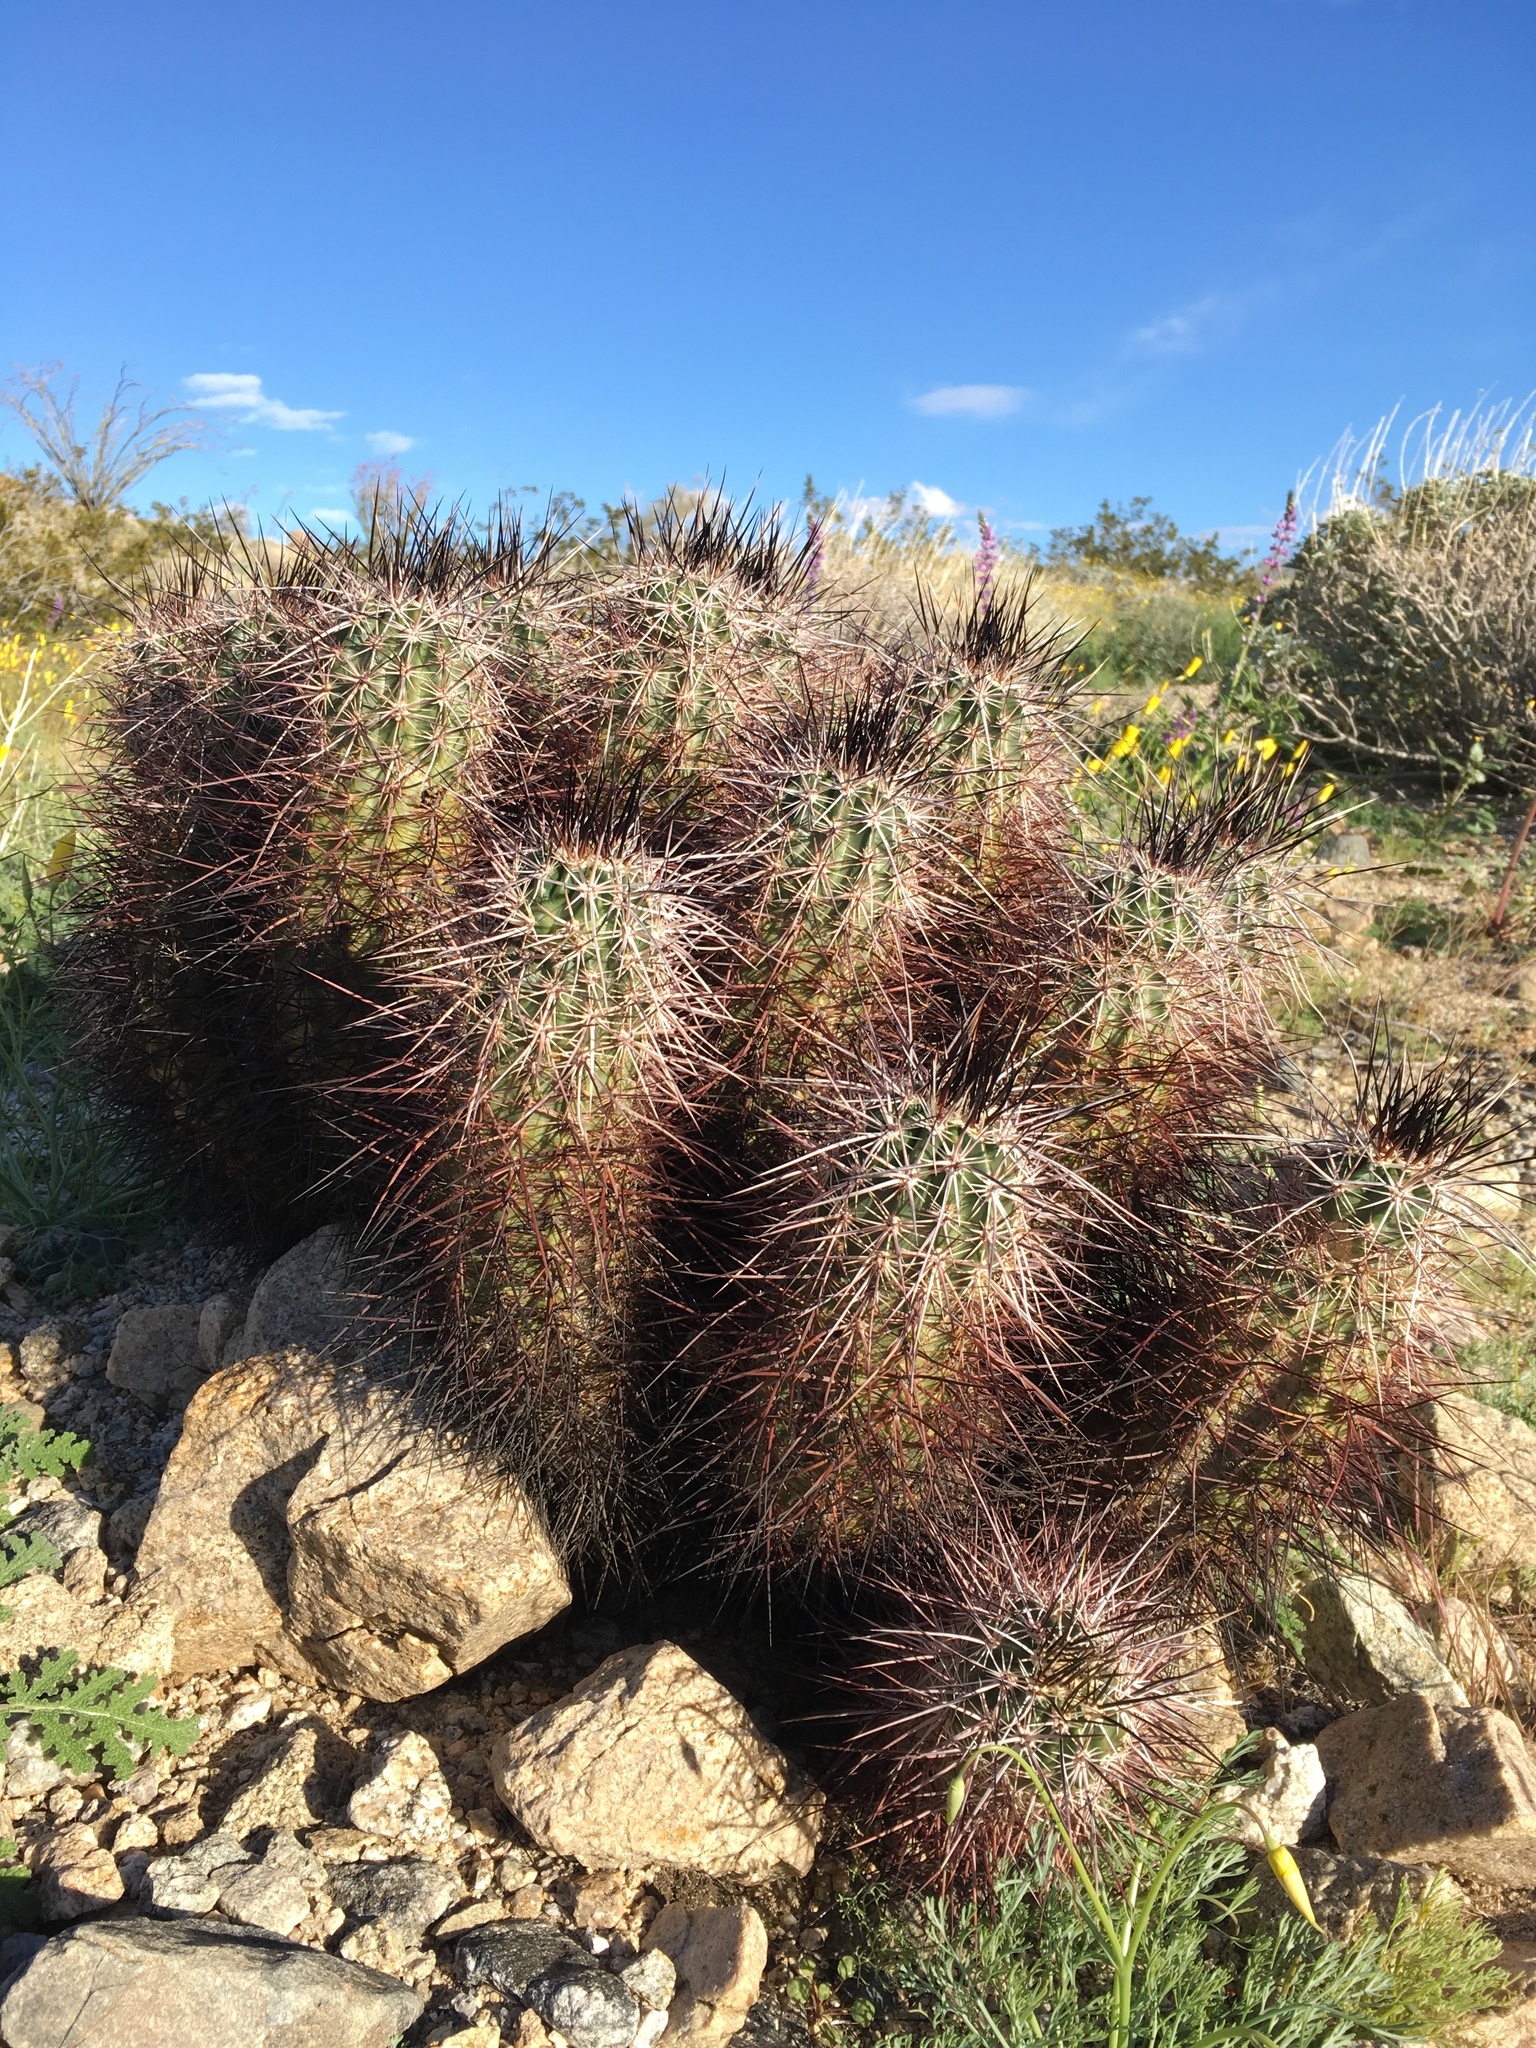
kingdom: Plantae
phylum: Tracheophyta
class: Magnoliopsida
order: Caryophyllales
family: Cactaceae
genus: Echinocereus
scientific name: Echinocereus engelmannii
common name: Engelmann's hedgehog cactus
